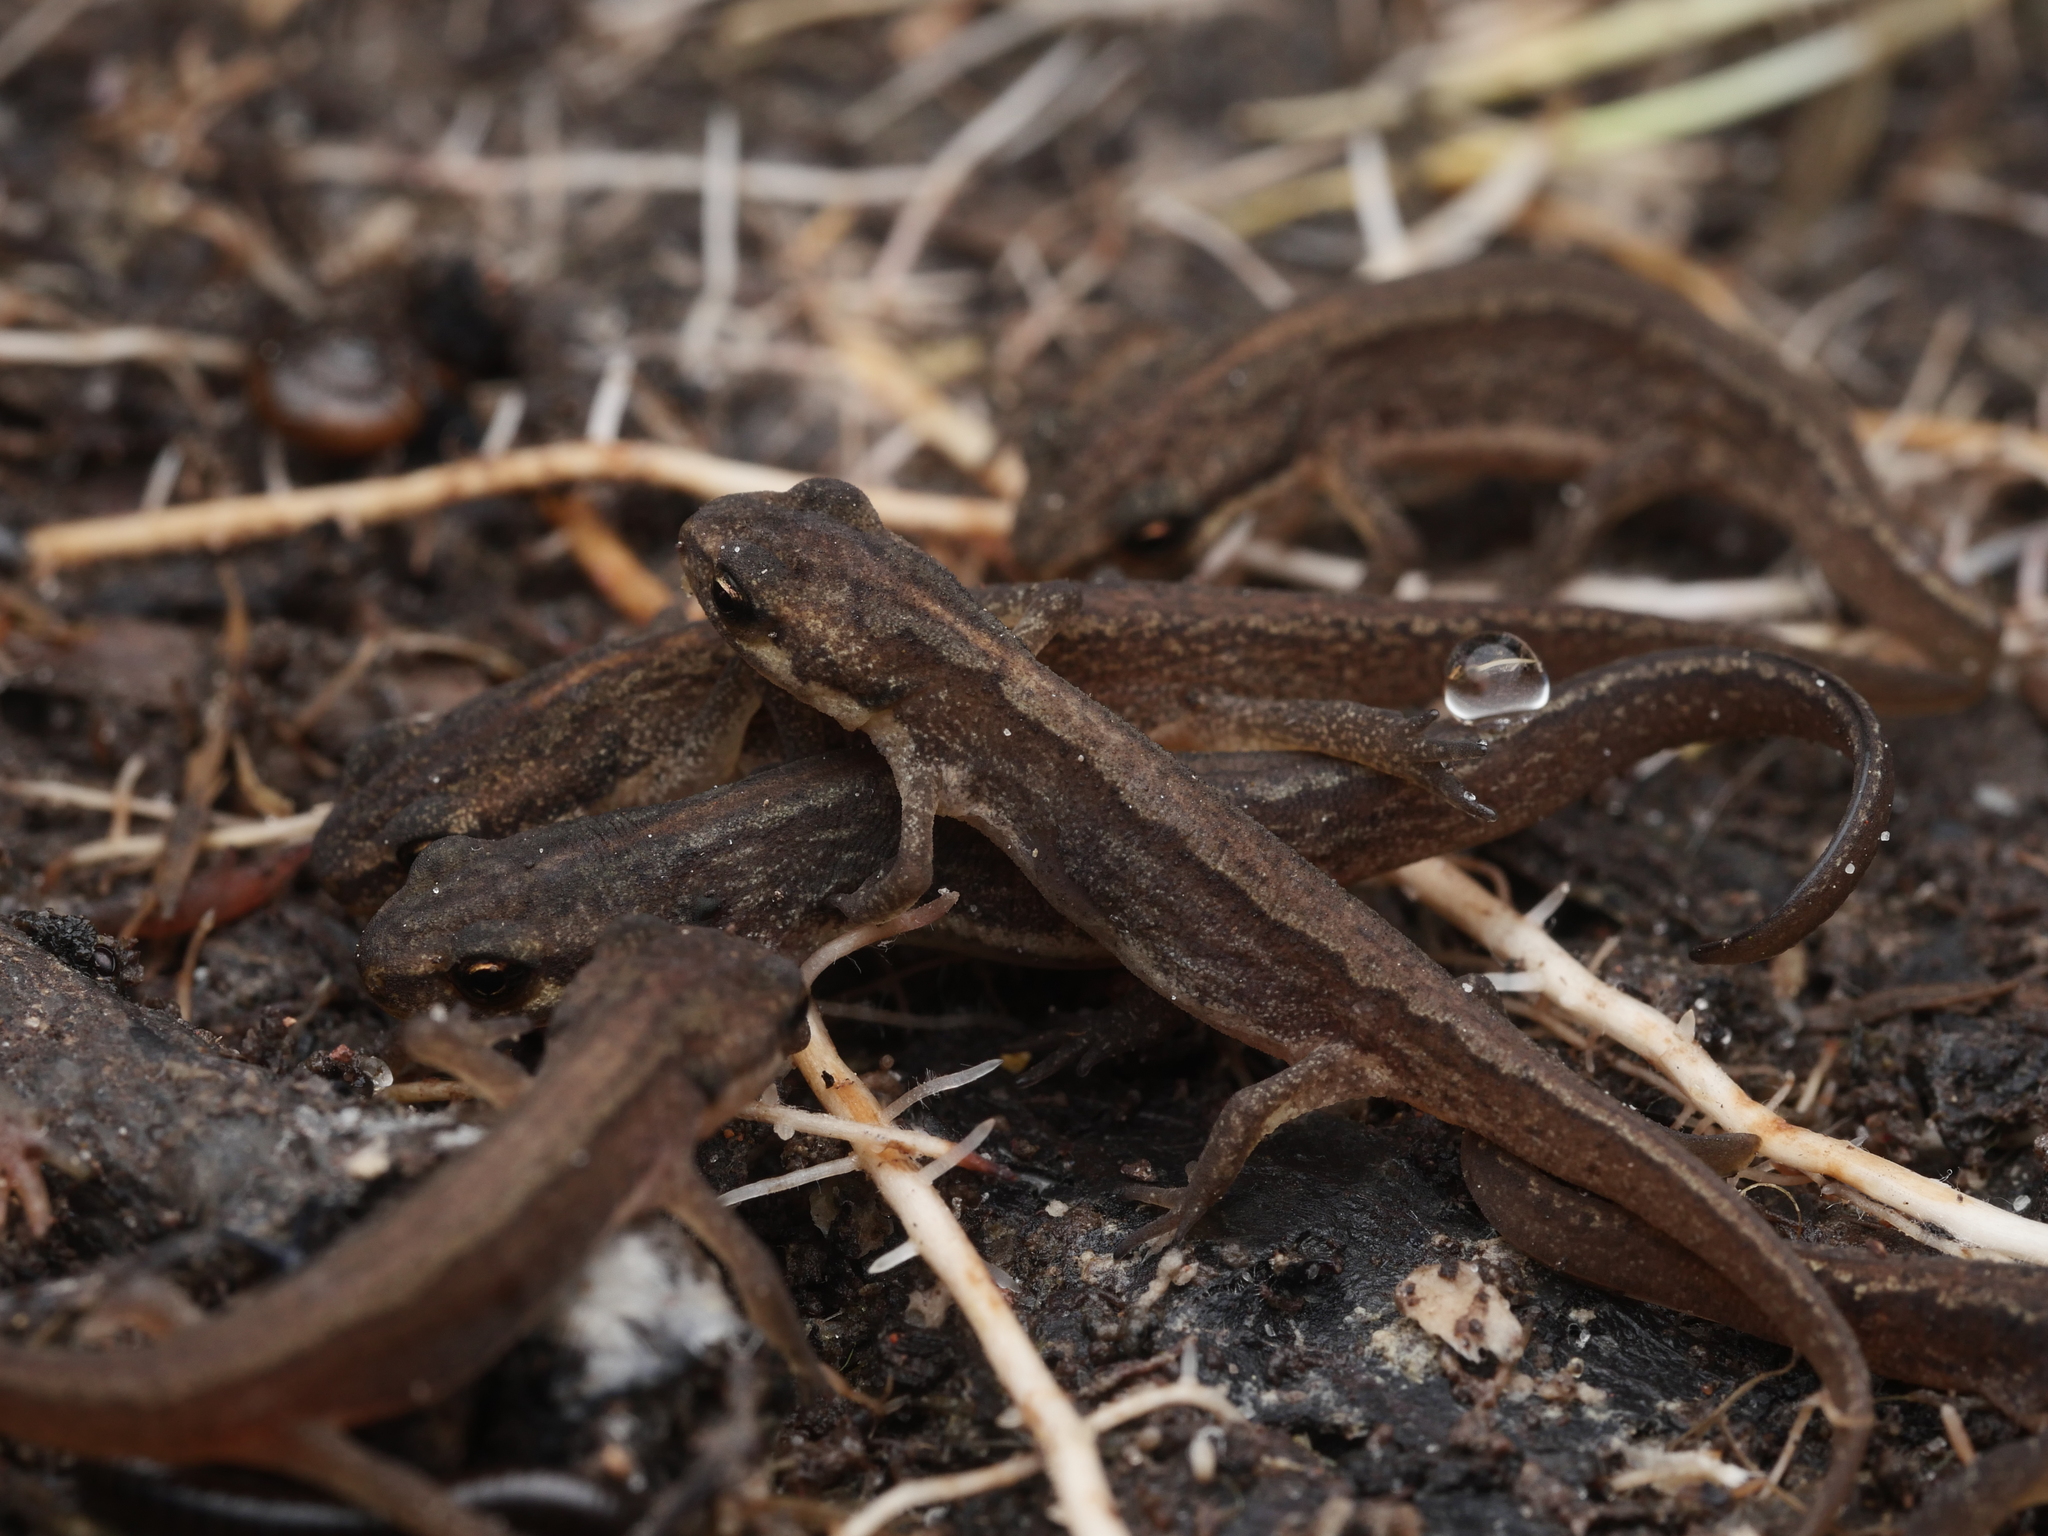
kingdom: Animalia
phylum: Chordata
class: Amphibia
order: Caudata
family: Salamandridae
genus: Lissotriton
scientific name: Lissotriton vulgaris
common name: Smooth newt
